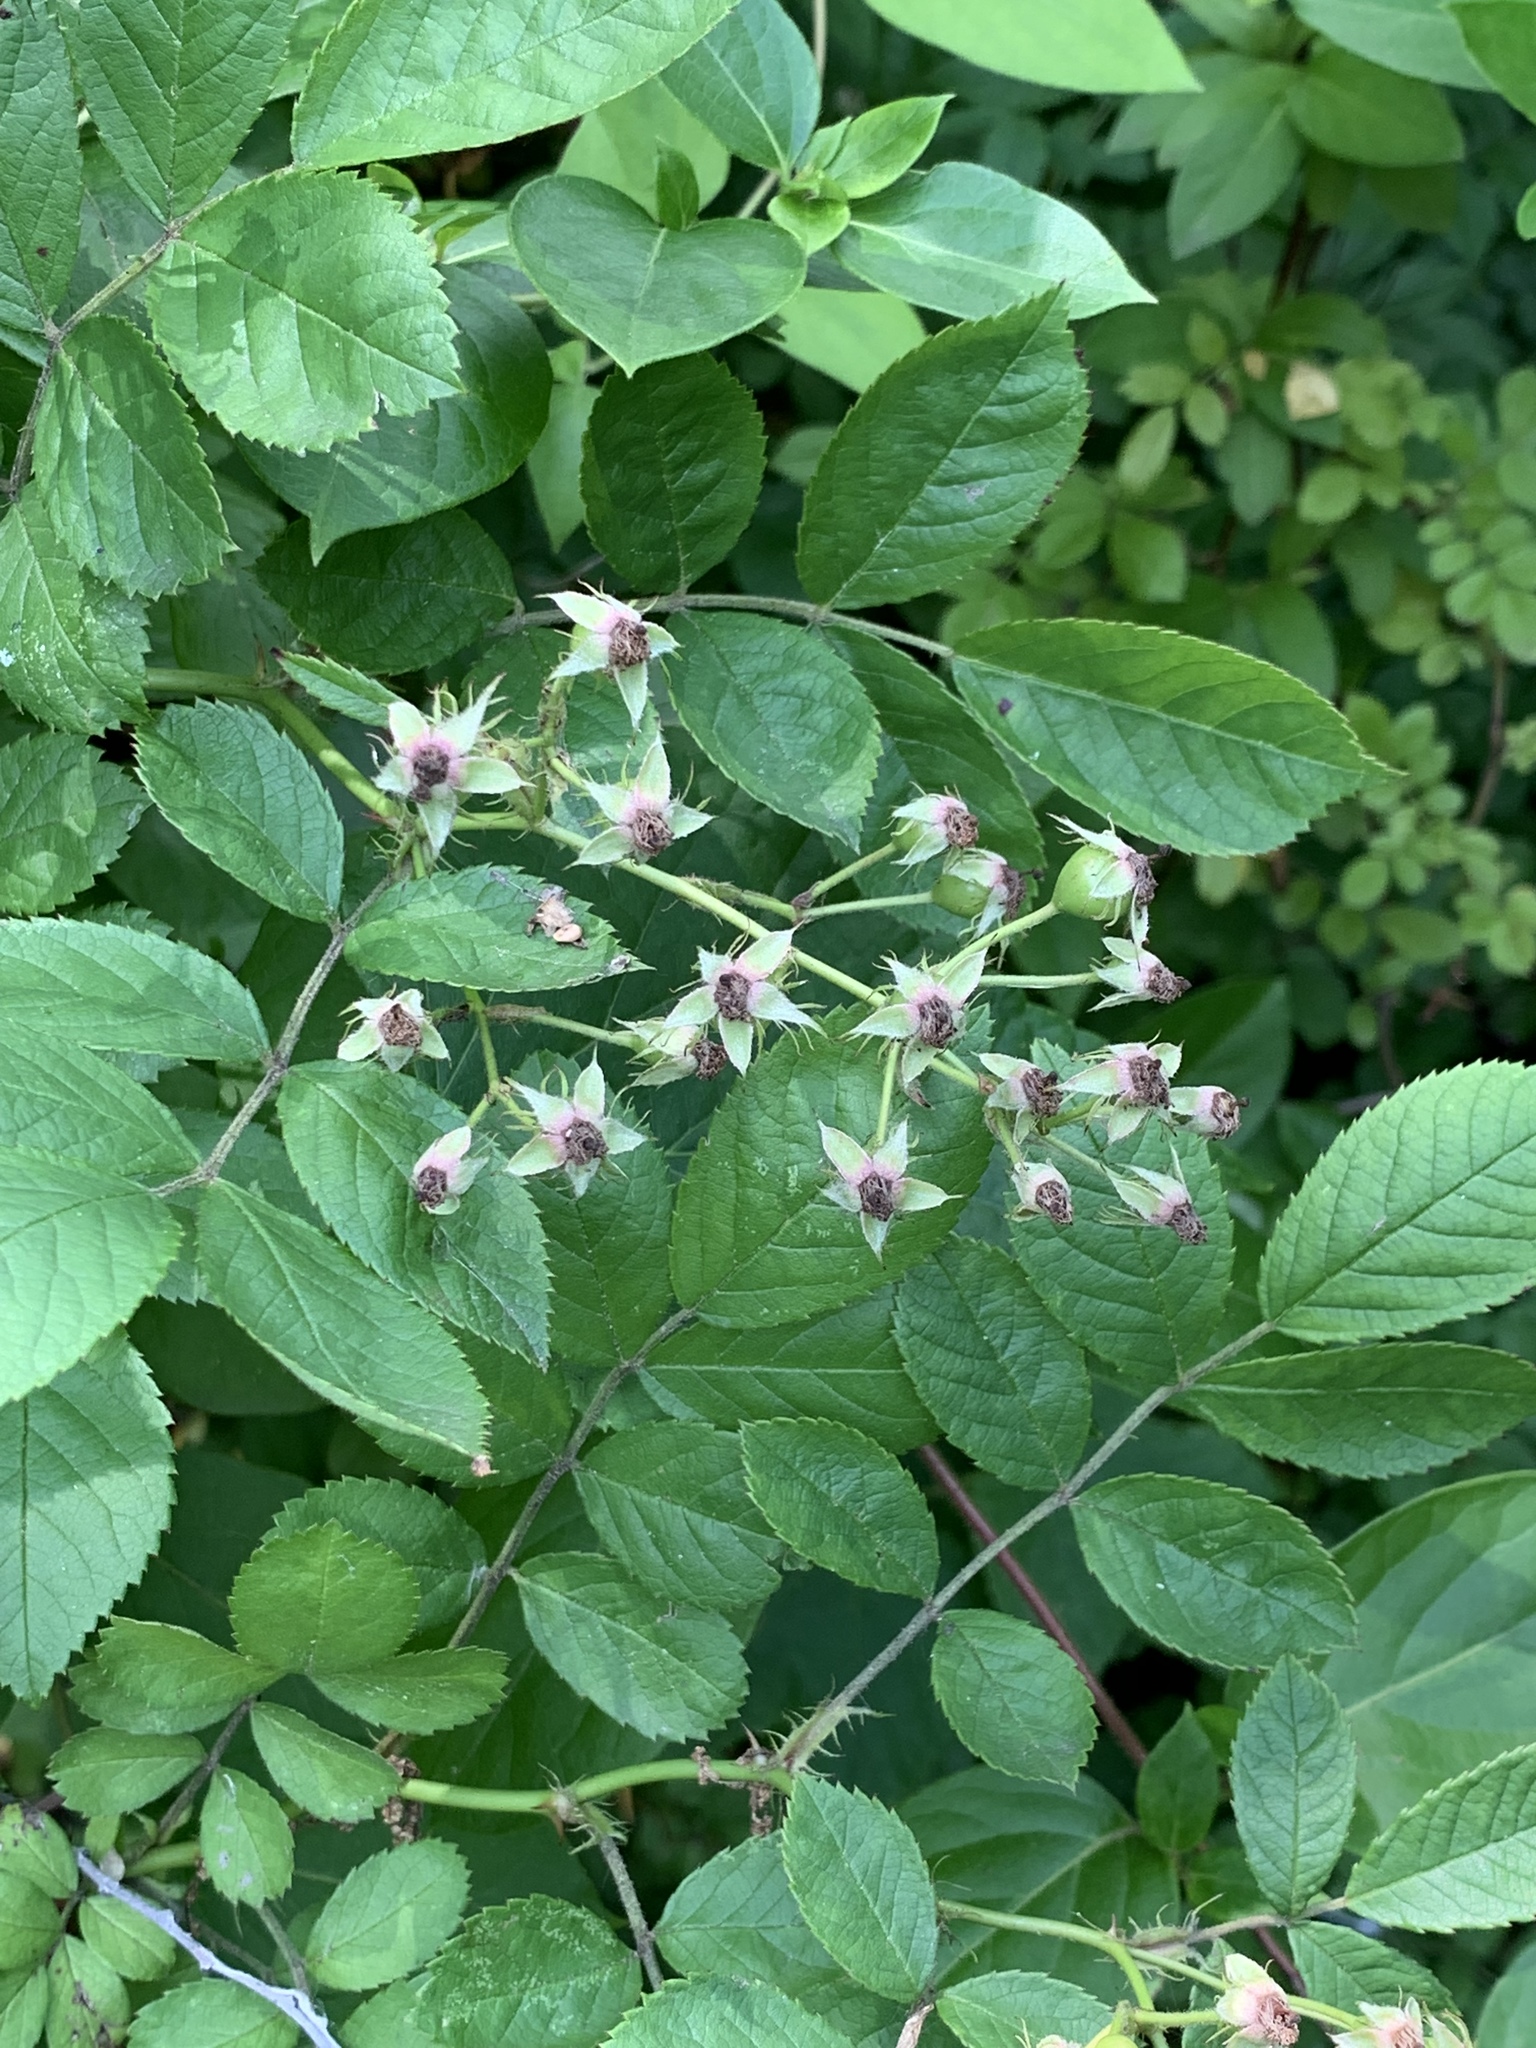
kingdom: Plantae
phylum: Tracheophyta
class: Magnoliopsida
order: Rosales
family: Rosaceae
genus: Rosa
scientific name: Rosa multiflora
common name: Multiflora rose
